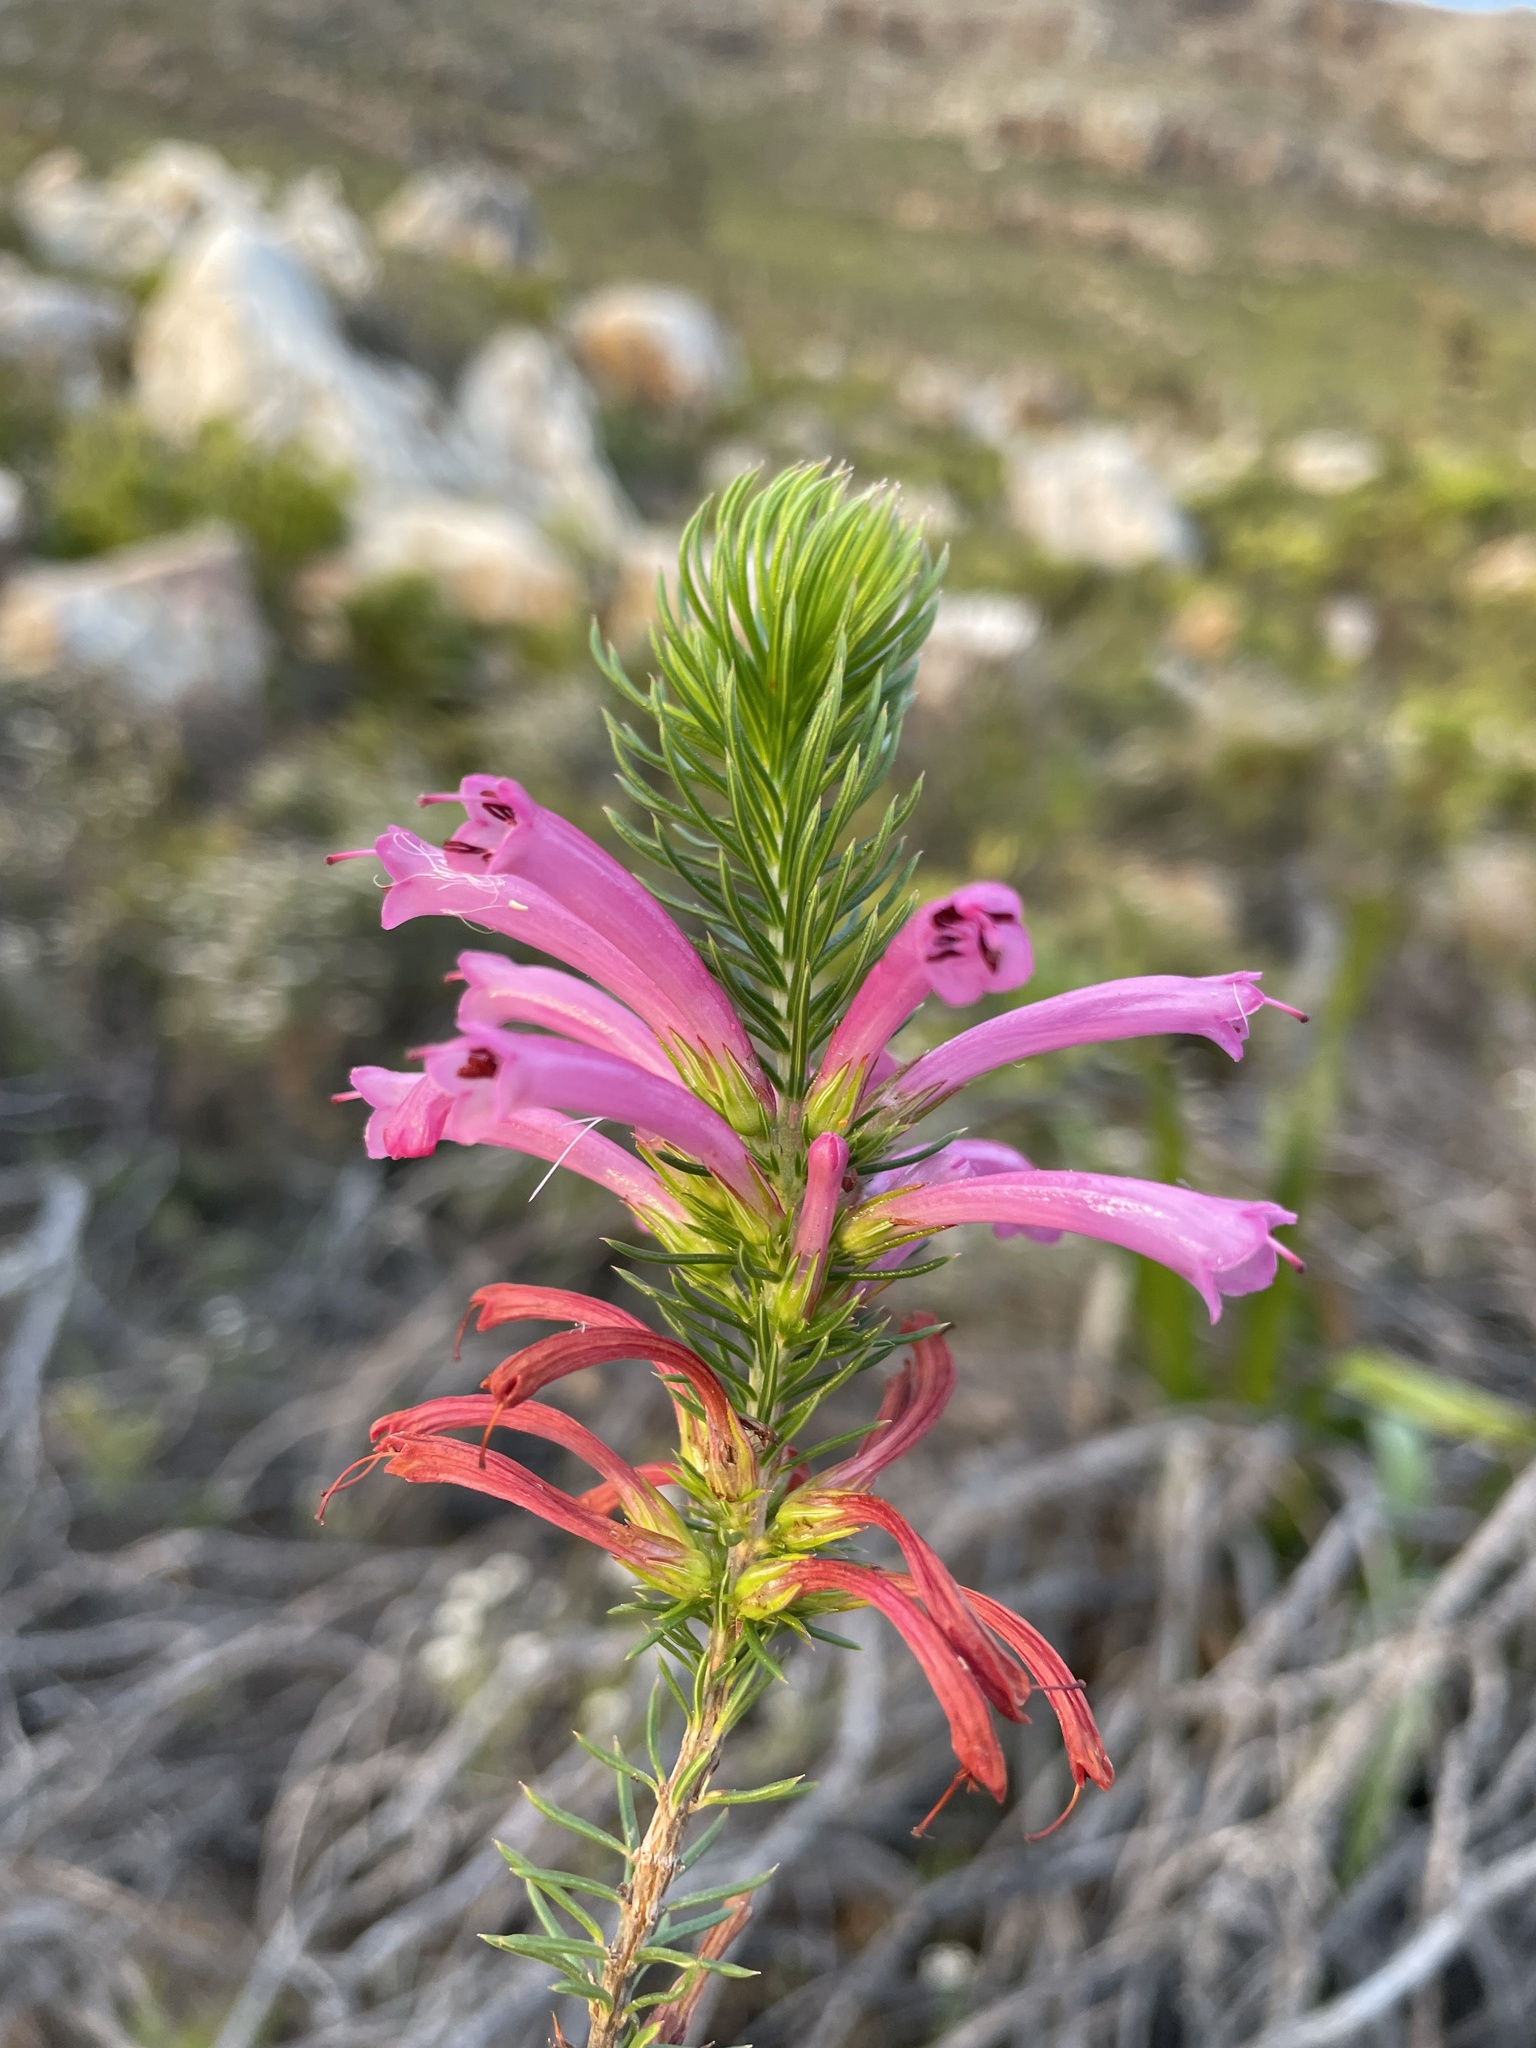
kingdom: Plantae
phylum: Tracheophyta
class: Magnoliopsida
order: Ericales
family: Ericaceae
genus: Erica
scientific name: Erica abietina
